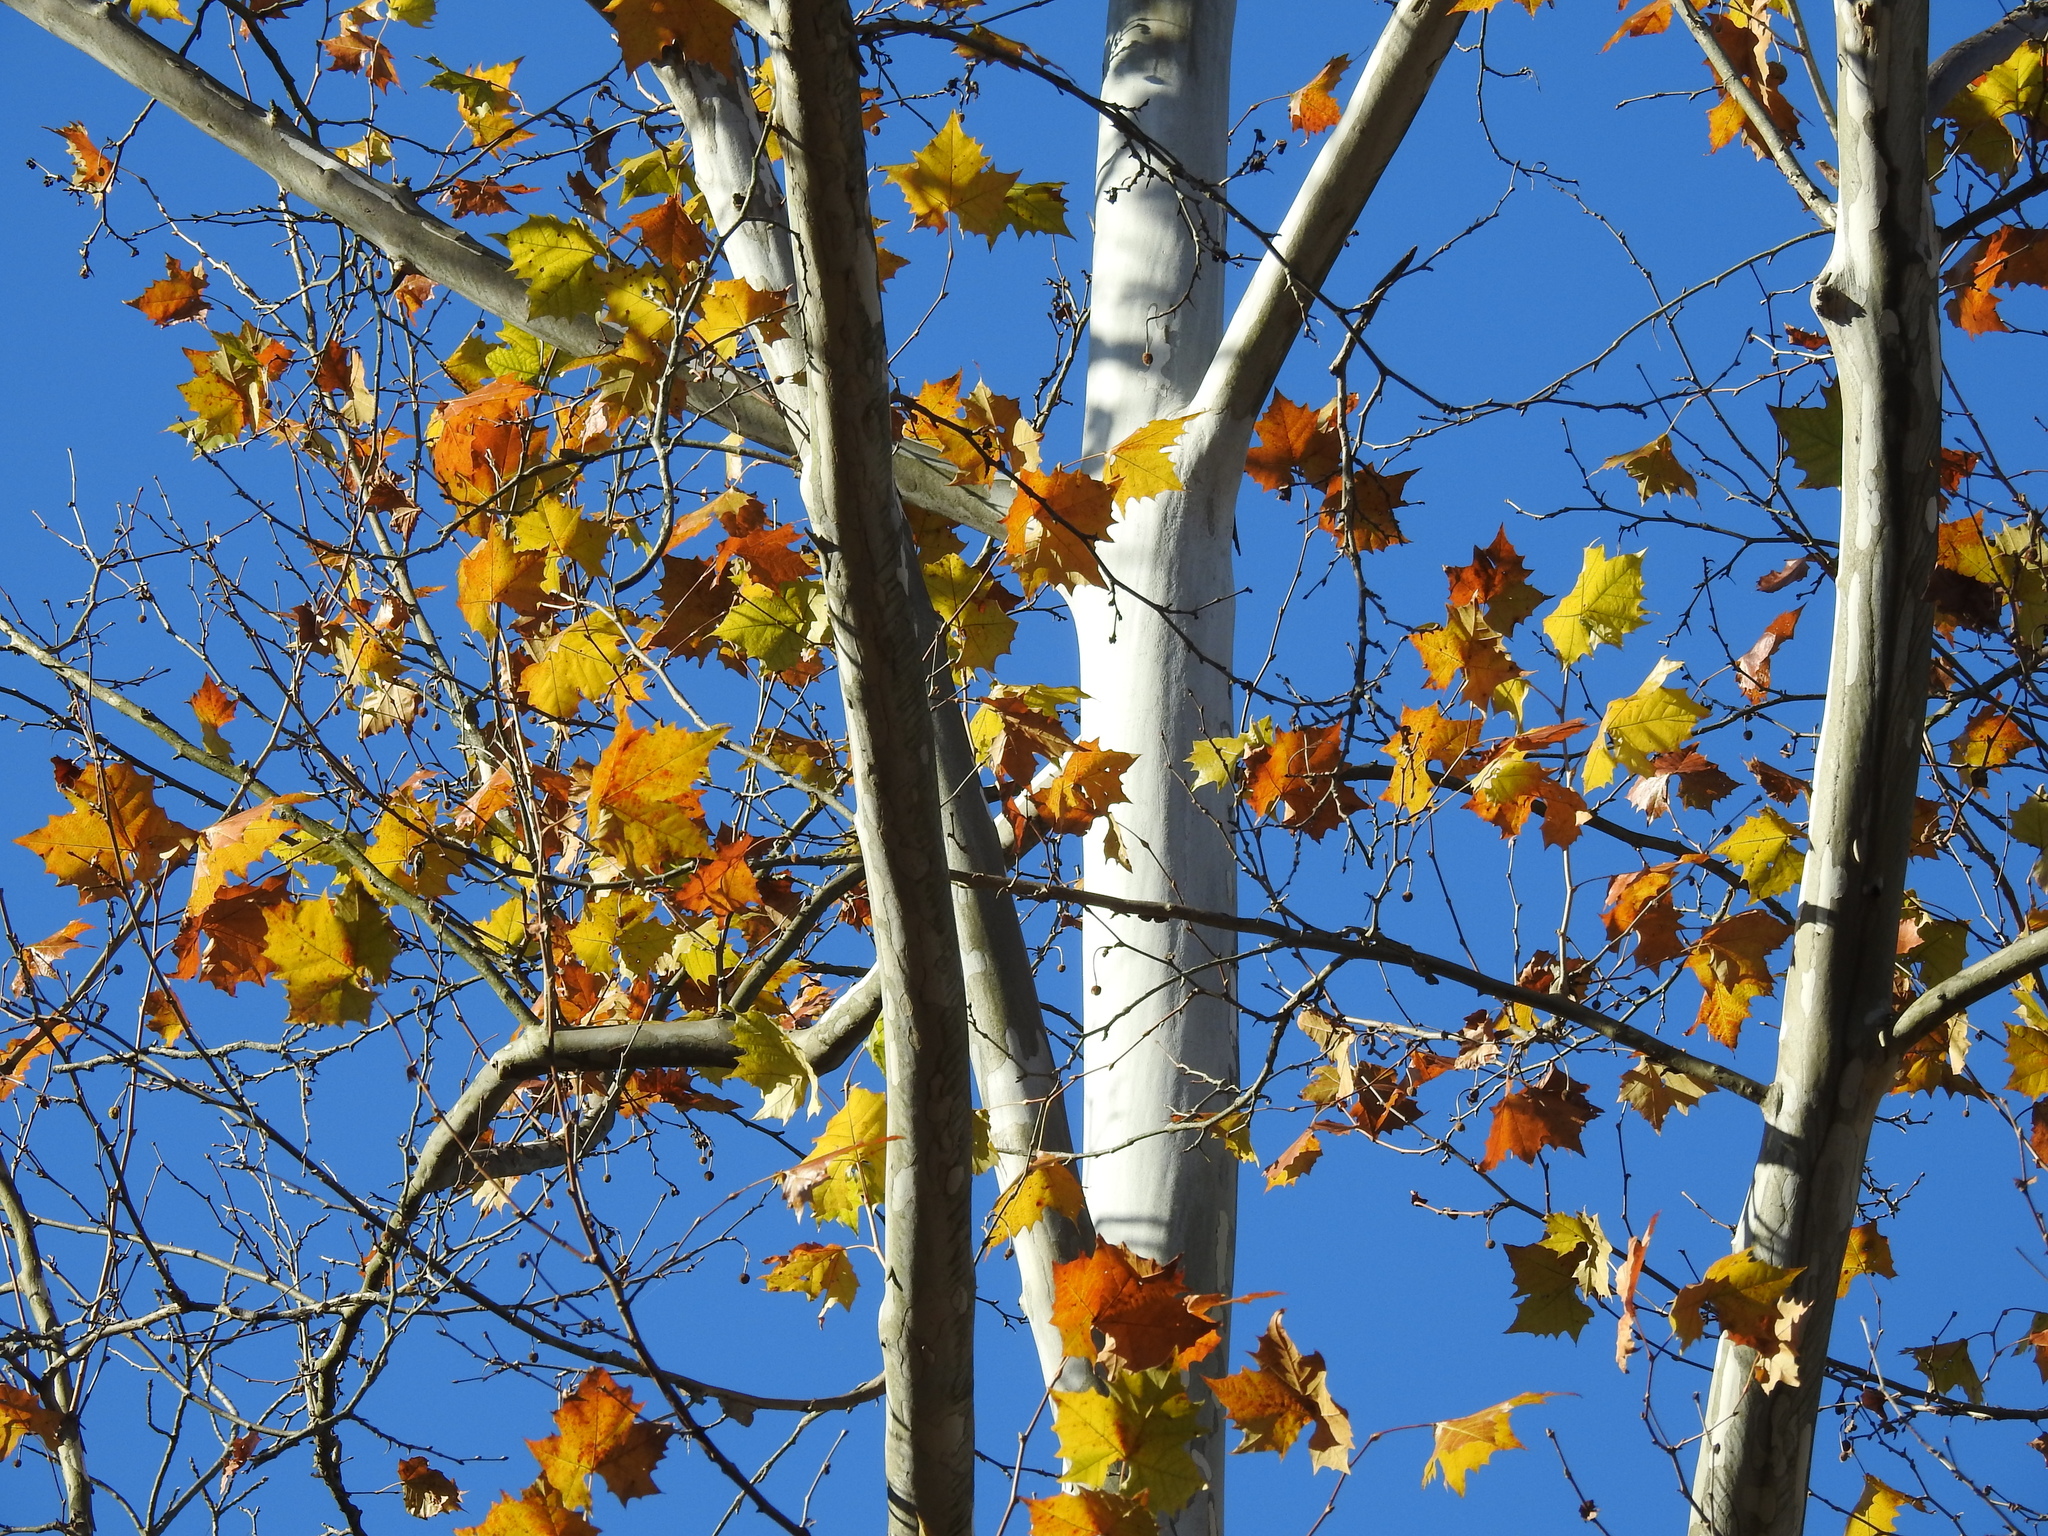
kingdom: Plantae
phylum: Tracheophyta
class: Magnoliopsida
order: Proteales
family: Platanaceae
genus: Platanus
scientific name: Platanus occidentalis
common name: American sycamore
